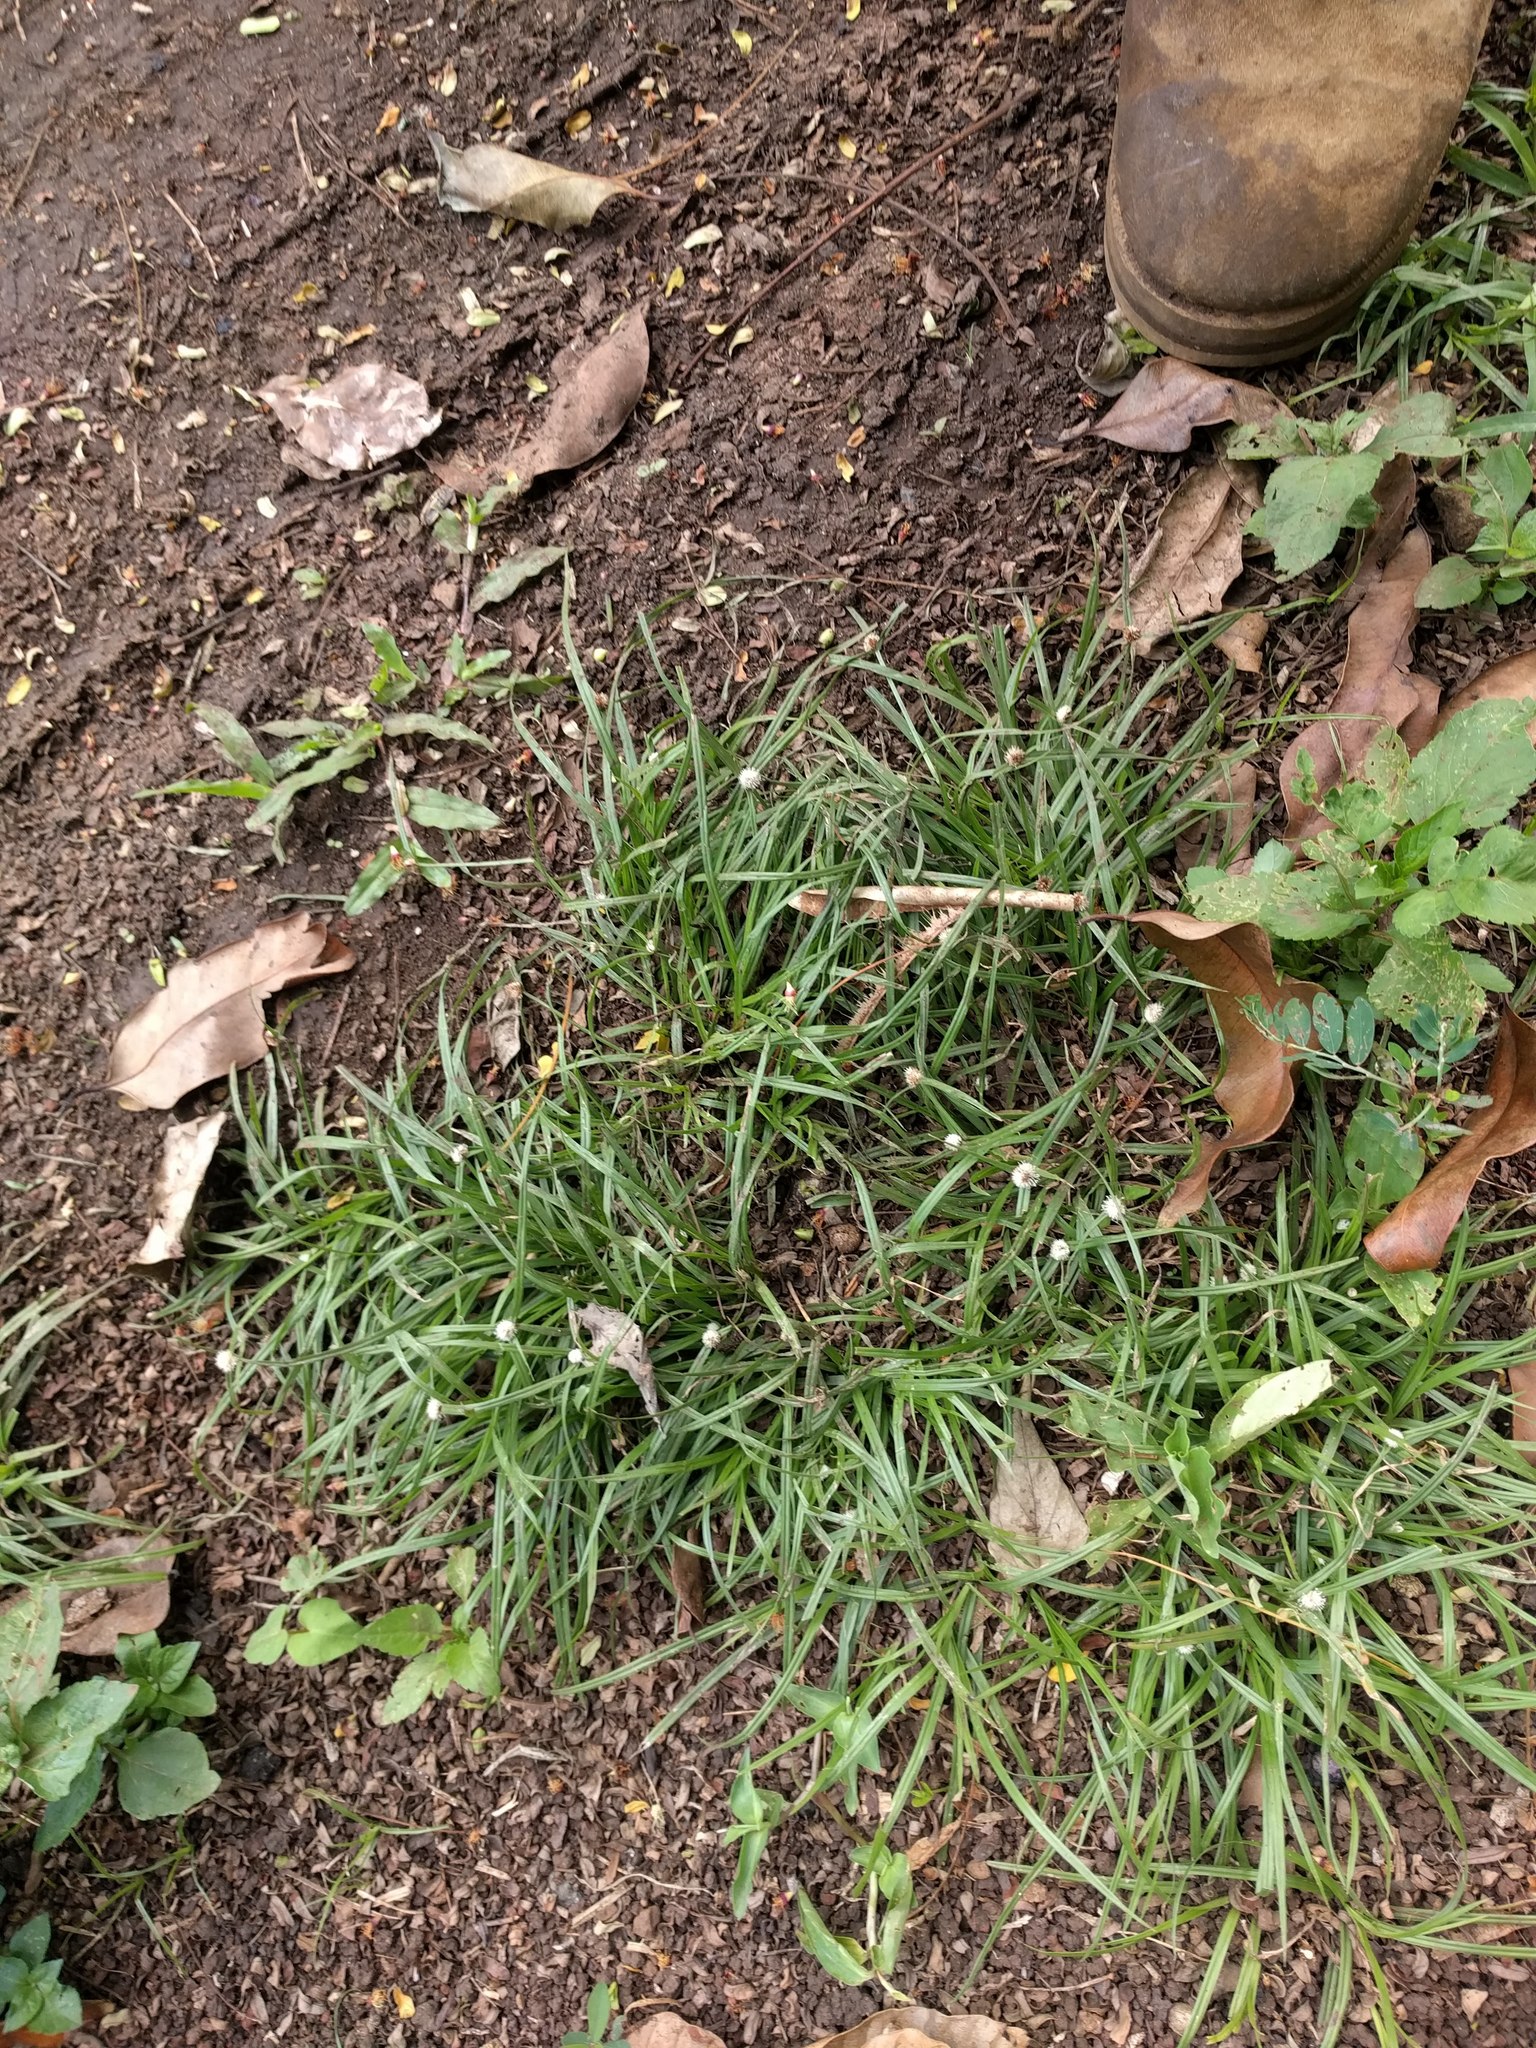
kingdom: Plantae
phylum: Tracheophyta
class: Liliopsida
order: Poales
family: Cyperaceae
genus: Cyperus
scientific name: Cyperus mindorensis
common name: Flatsedge
